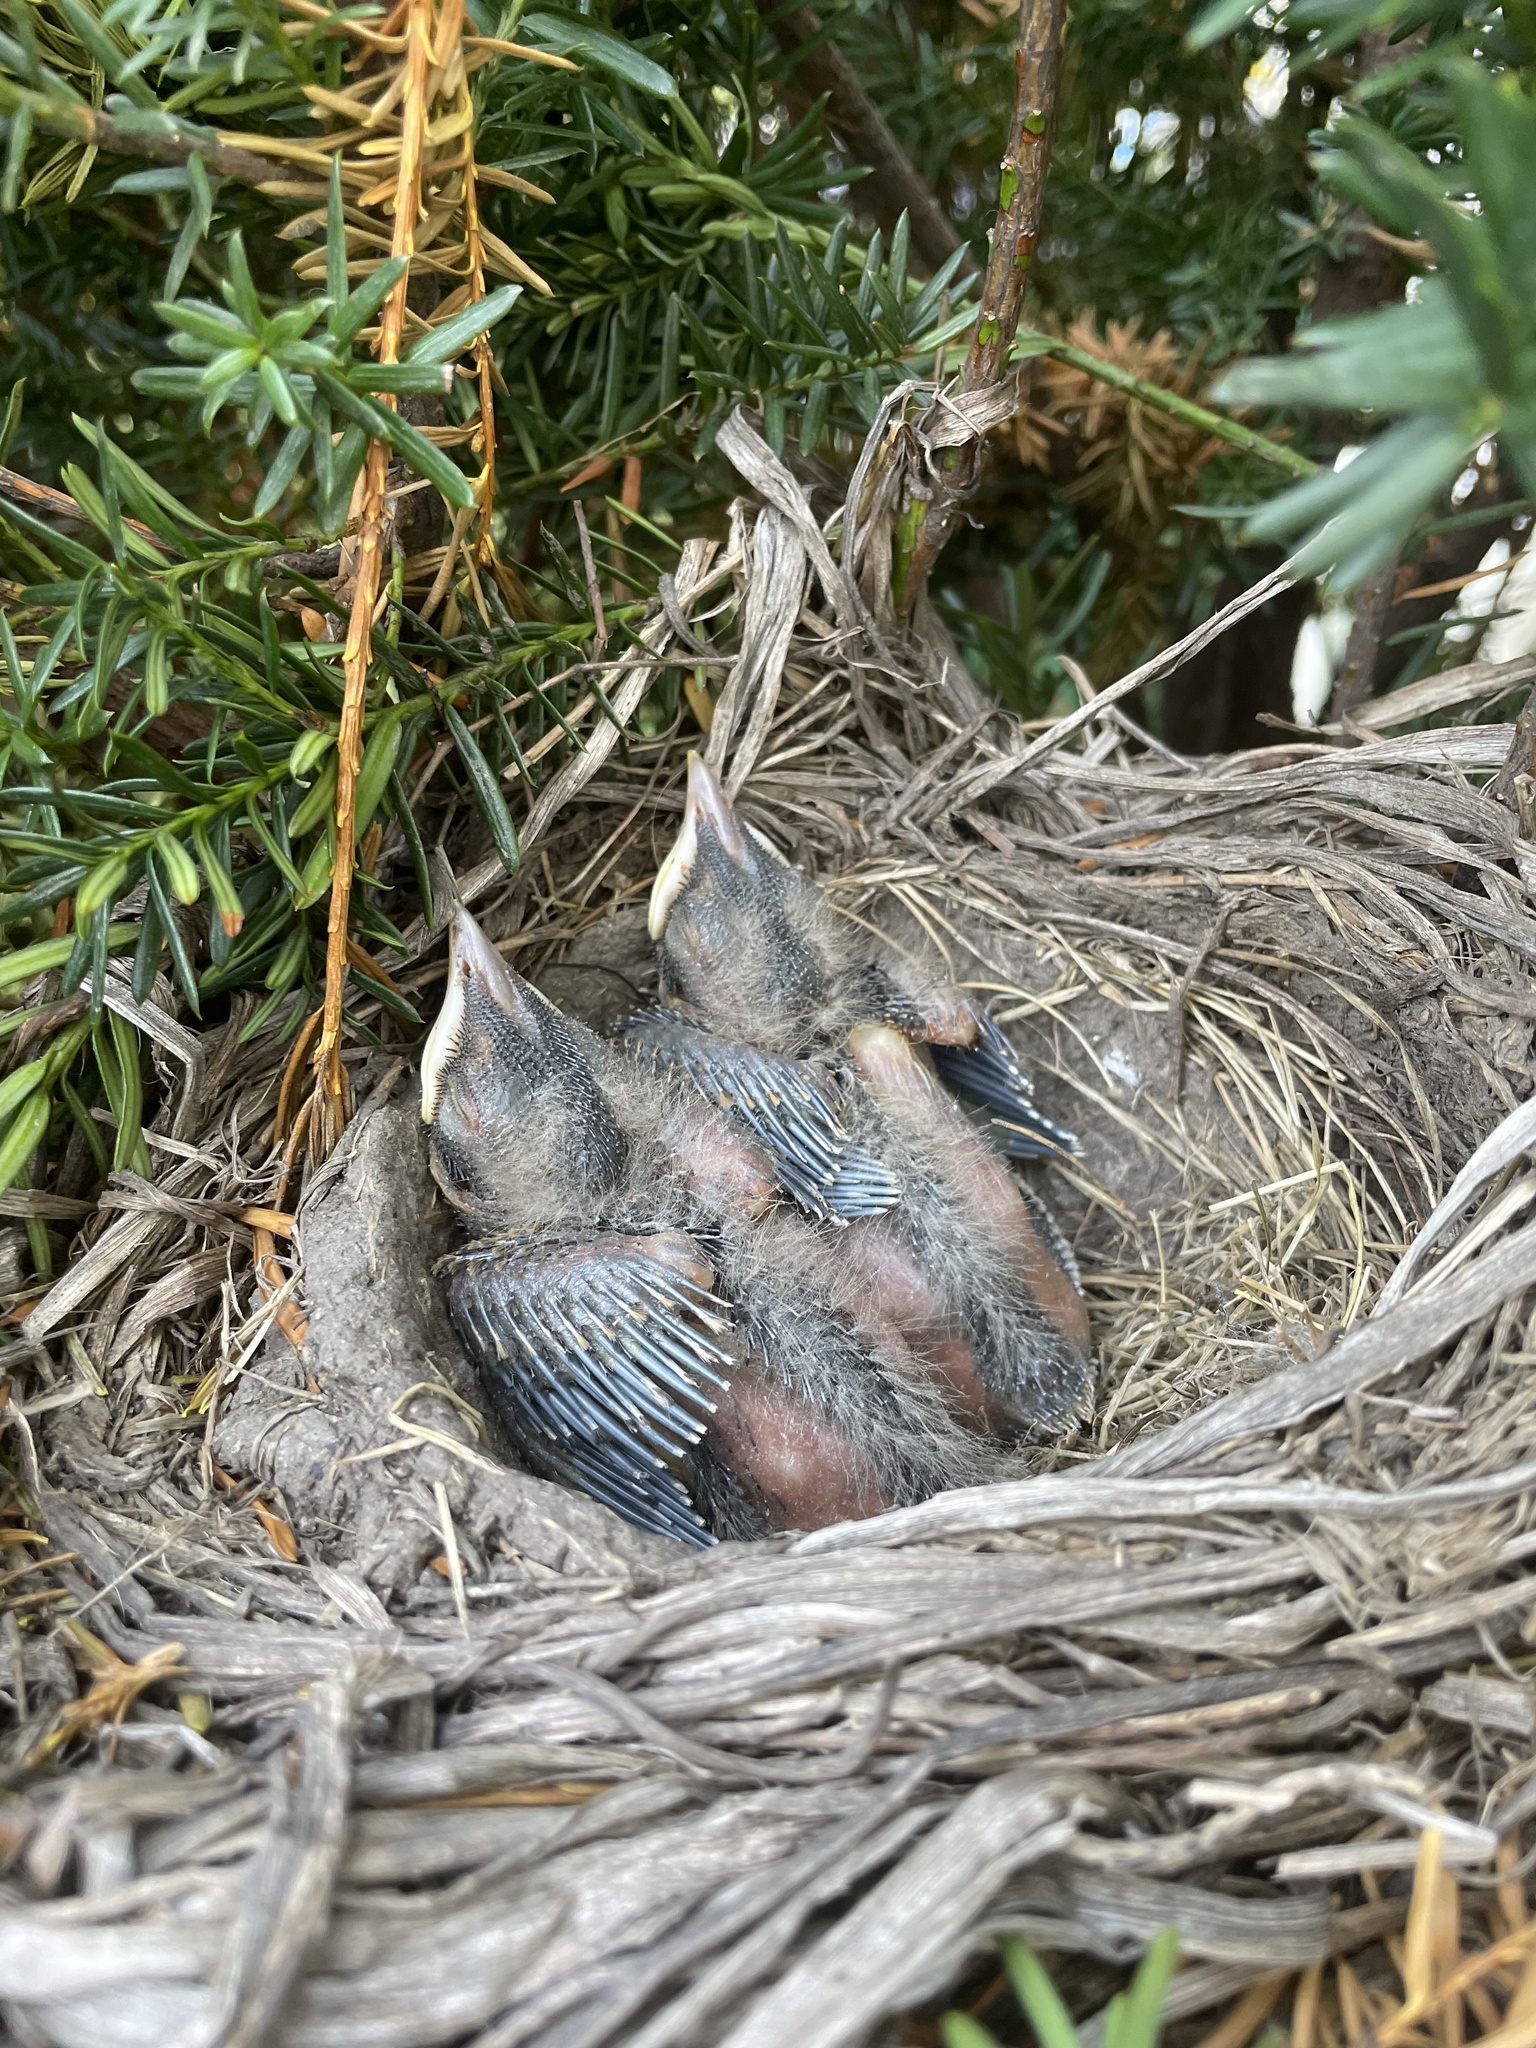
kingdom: Animalia
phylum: Chordata
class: Aves
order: Passeriformes
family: Turdidae
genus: Turdus
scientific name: Turdus migratorius
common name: American robin
